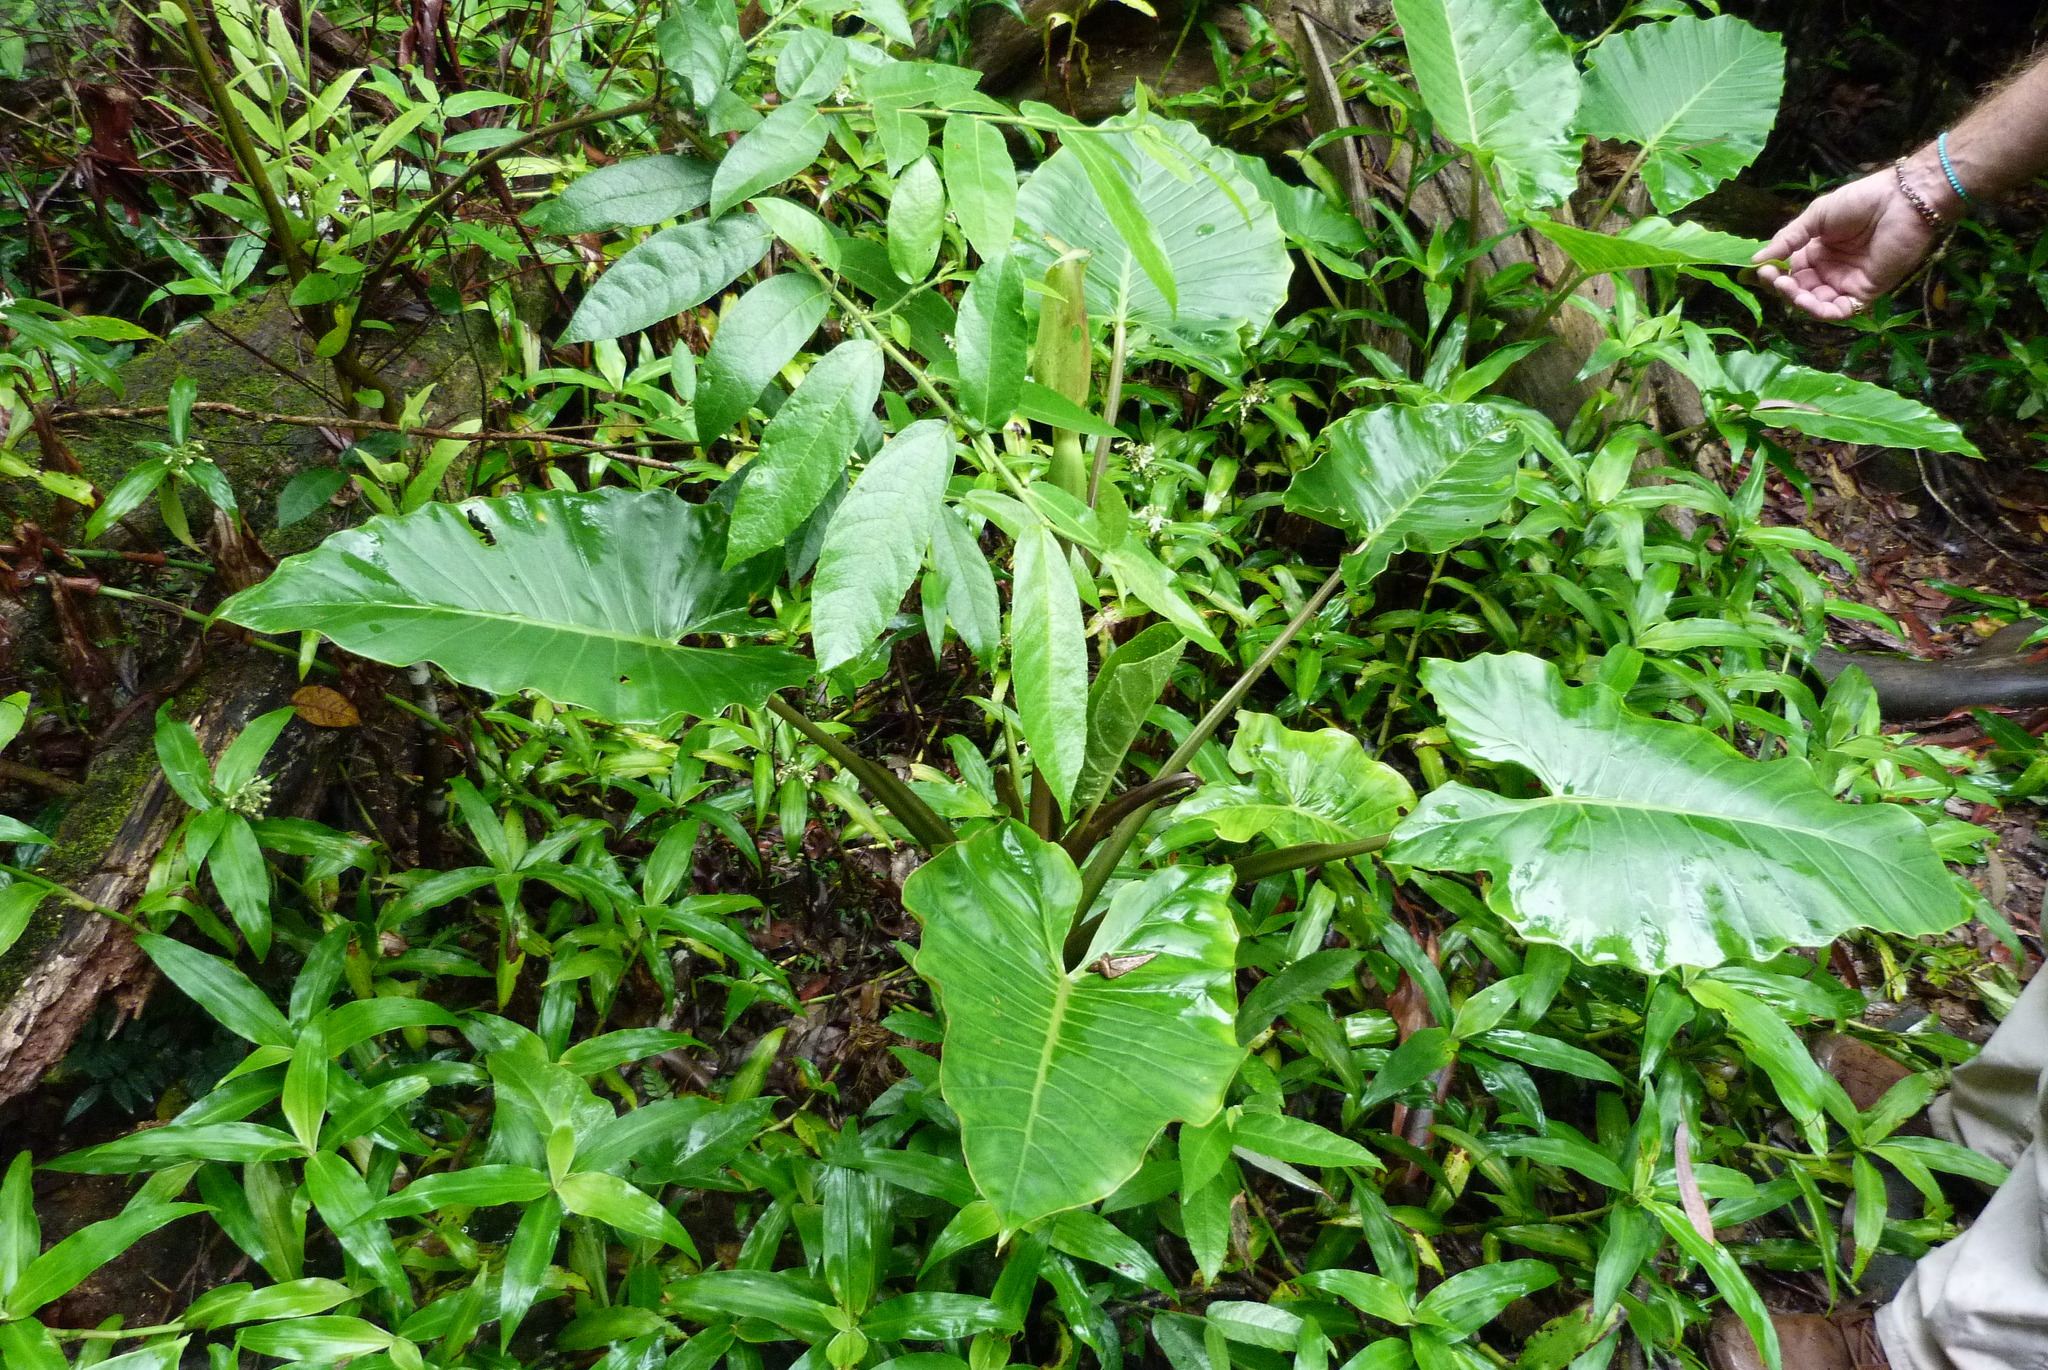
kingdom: Plantae
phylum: Tracheophyta
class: Liliopsida
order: Alismatales
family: Araceae
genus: Alocasia
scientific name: Alocasia brisbanensis
